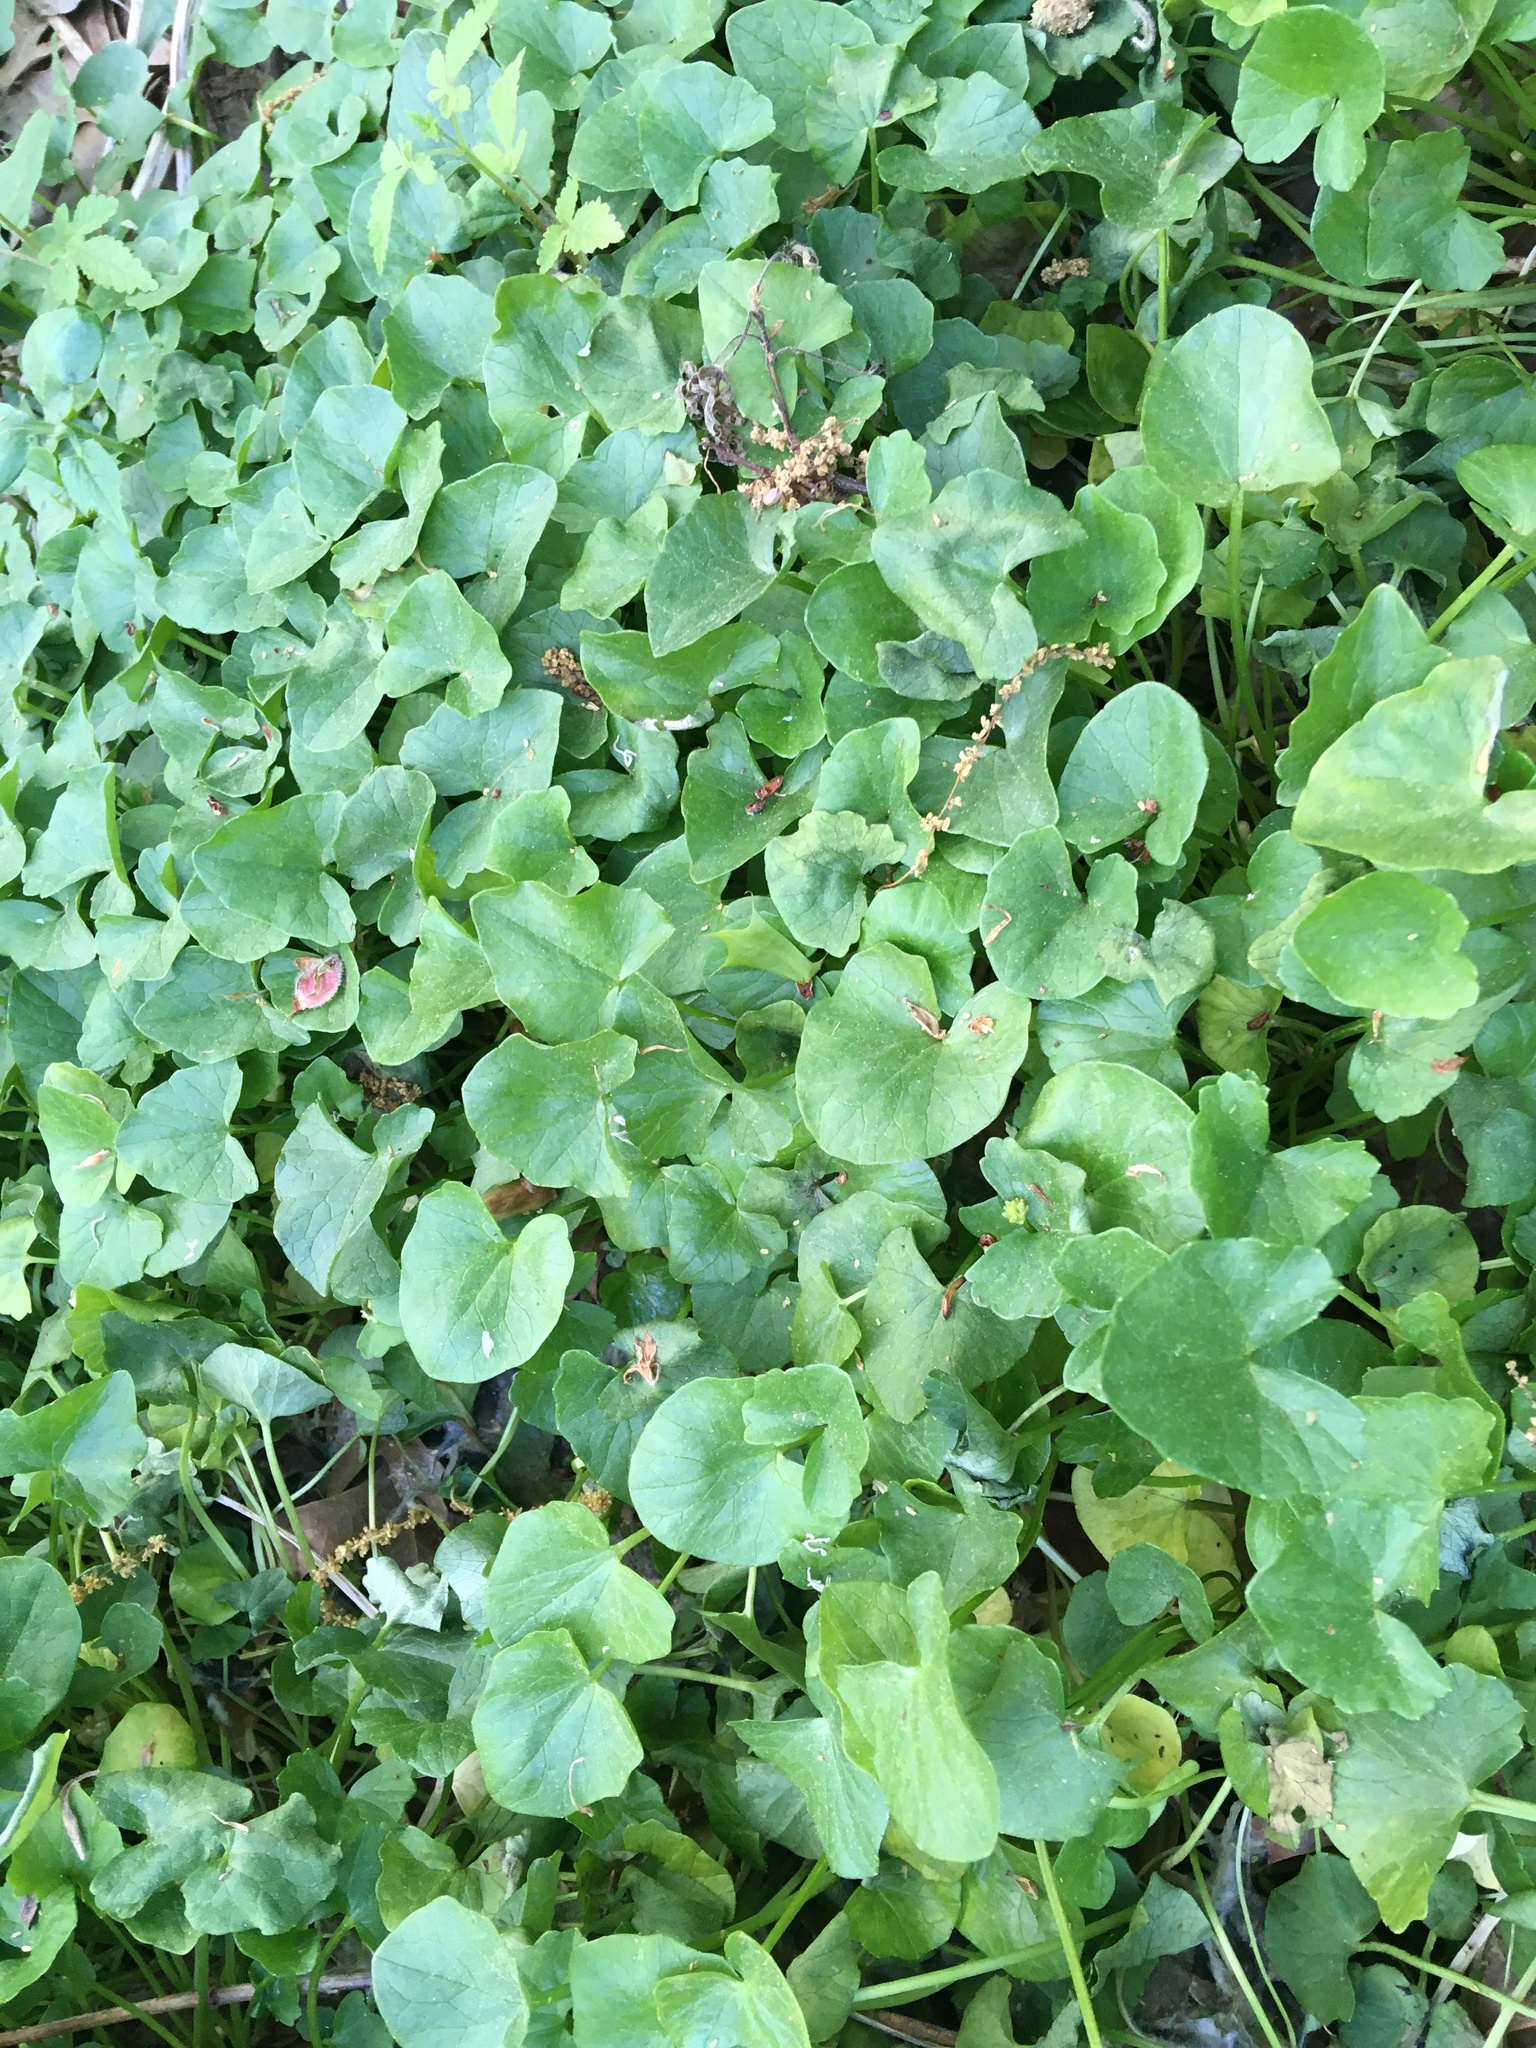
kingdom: Plantae
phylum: Tracheophyta
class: Magnoliopsida
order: Ranunculales
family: Ranunculaceae
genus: Ficaria
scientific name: Ficaria verna
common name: Lesser celandine
